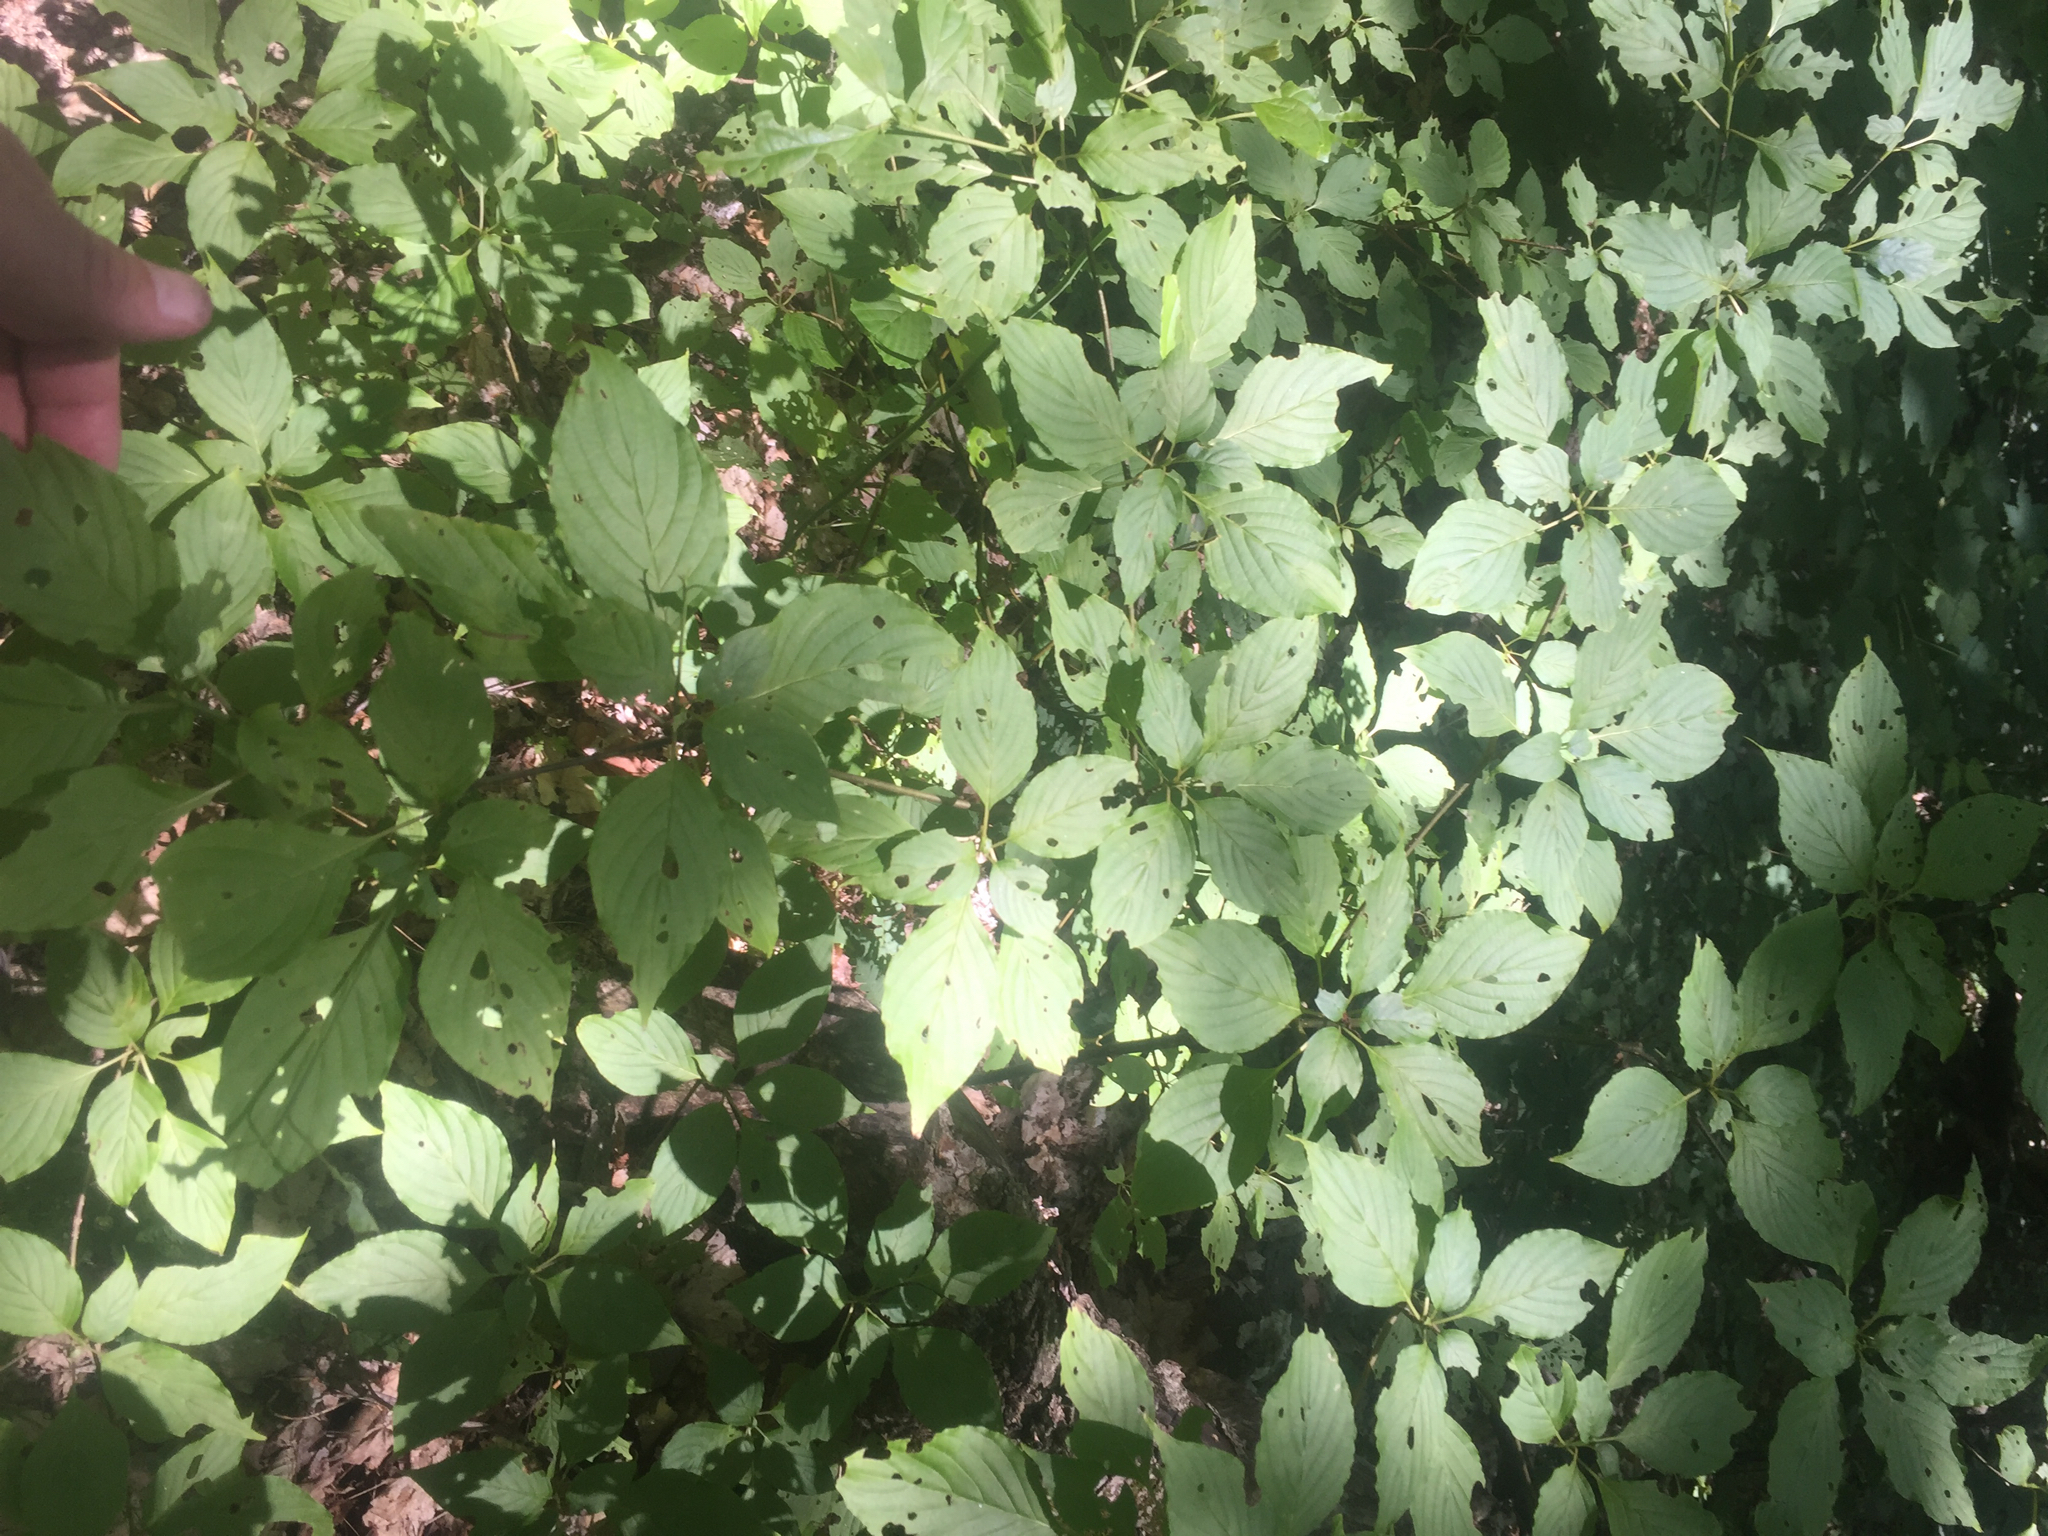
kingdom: Plantae
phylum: Tracheophyta
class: Magnoliopsida
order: Cornales
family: Cornaceae
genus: Cornus
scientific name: Cornus alternifolia
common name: Pagoda dogwood
